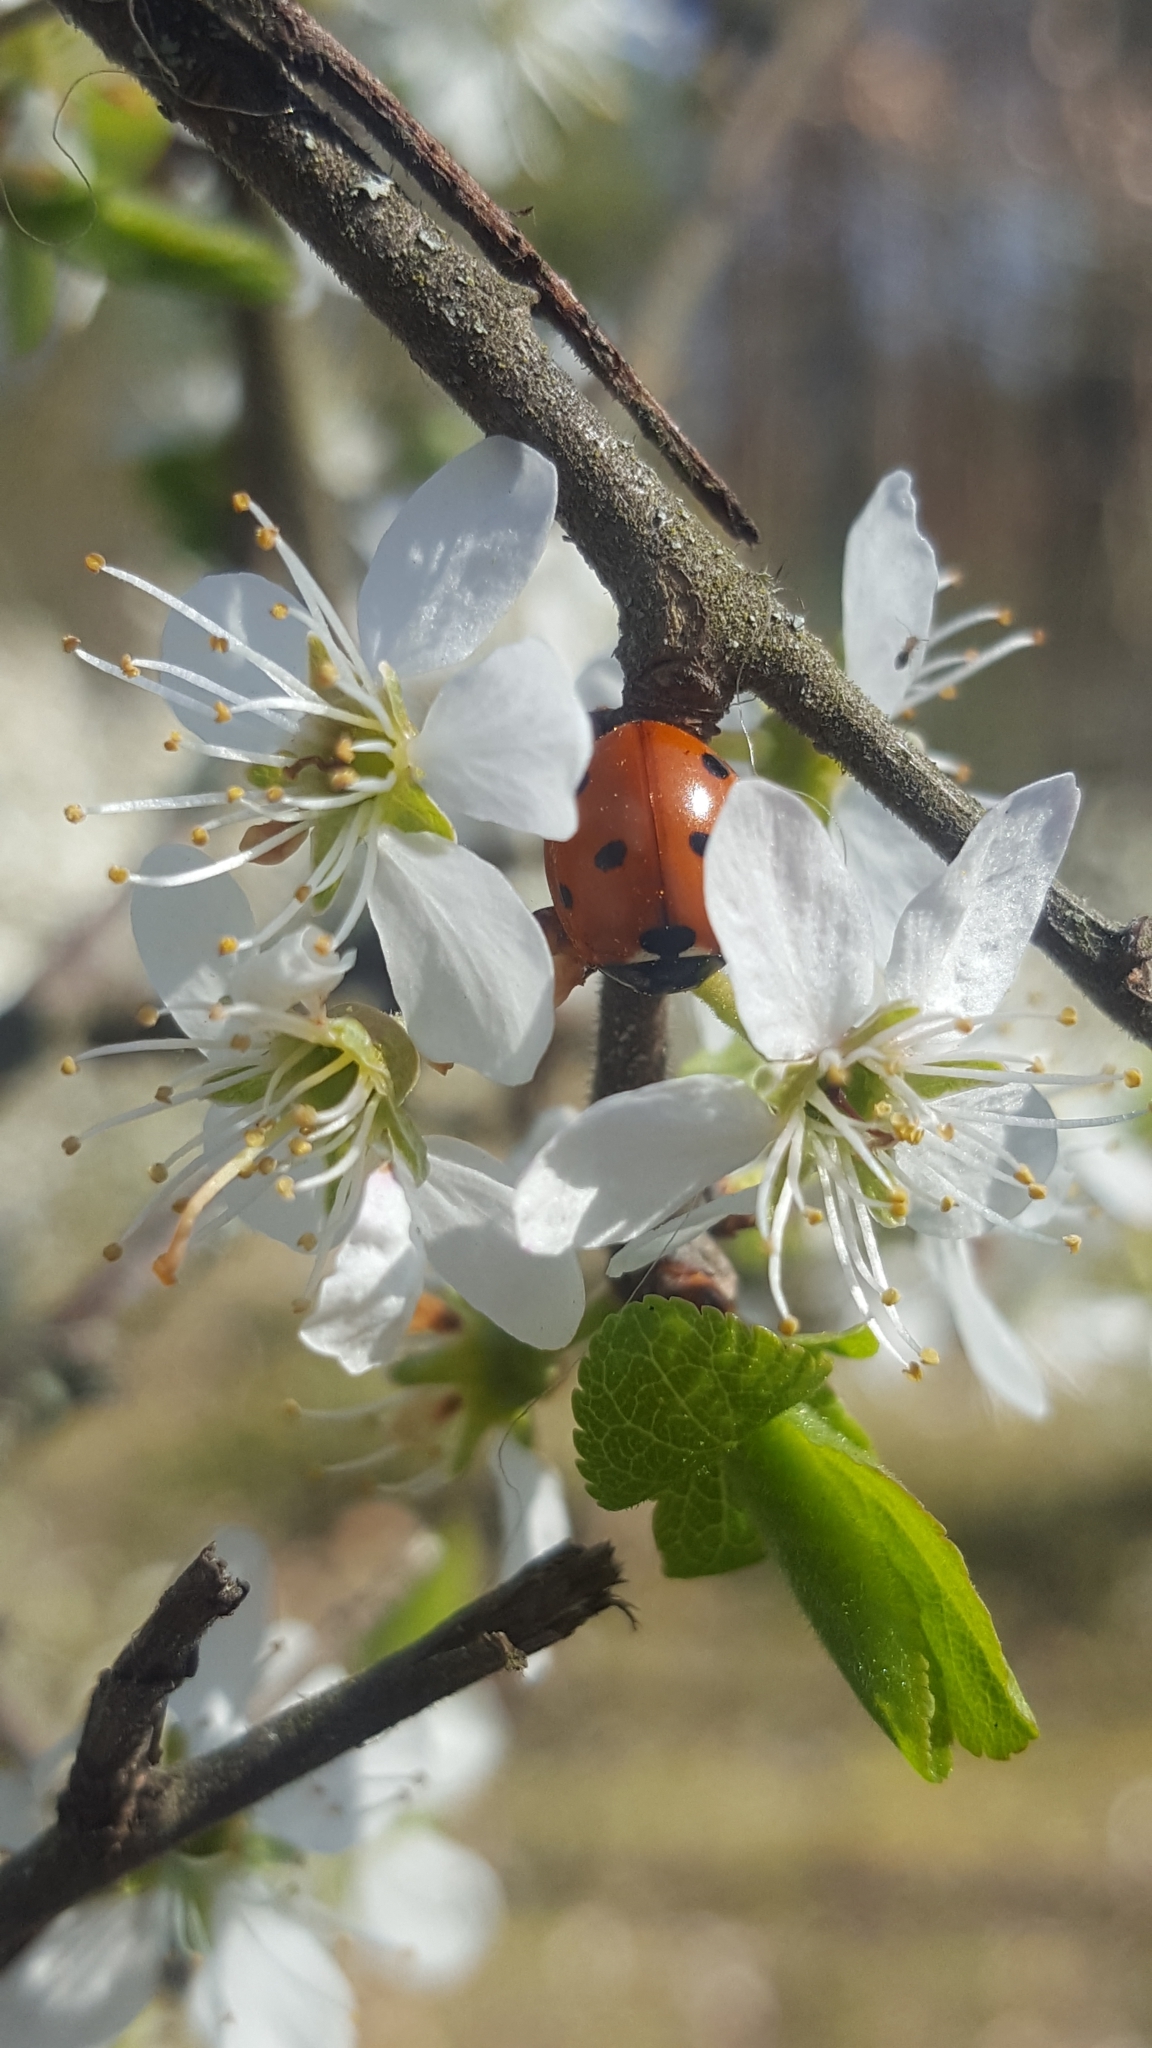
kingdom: Animalia
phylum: Arthropoda
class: Insecta
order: Coleoptera
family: Coccinellidae
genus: Coccinella
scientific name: Coccinella septempunctata
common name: Sevenspotted lady beetle
